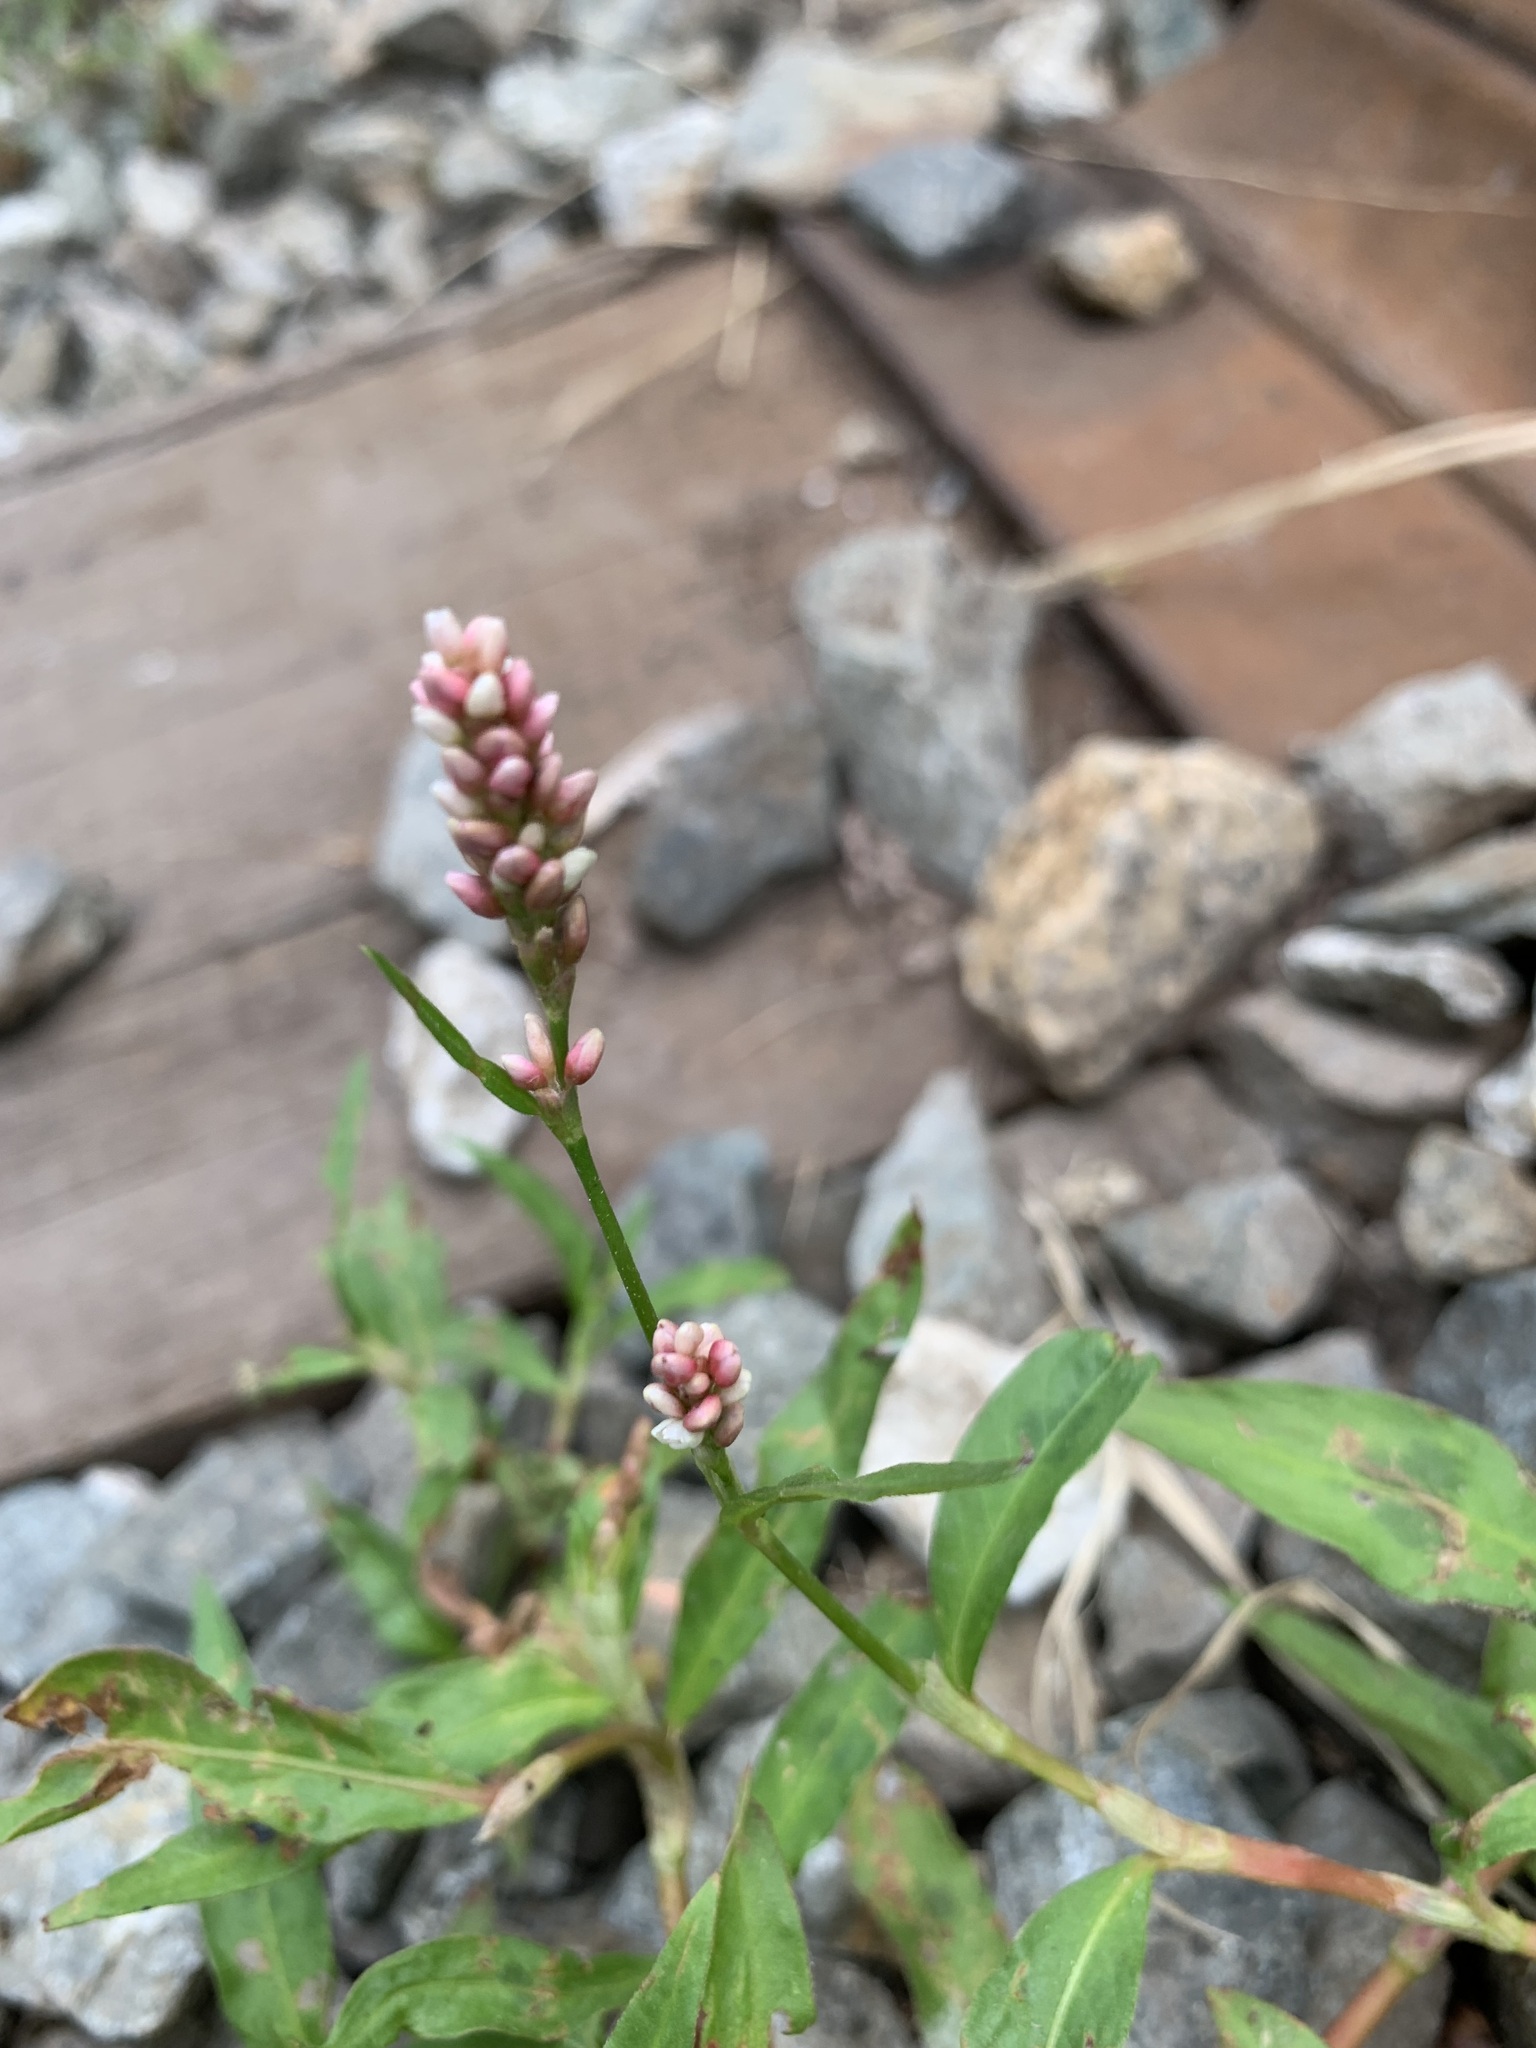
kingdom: Plantae
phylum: Tracheophyta
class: Magnoliopsida
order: Caryophyllales
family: Polygonaceae
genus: Persicaria
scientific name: Persicaria maculosa
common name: Redshank
